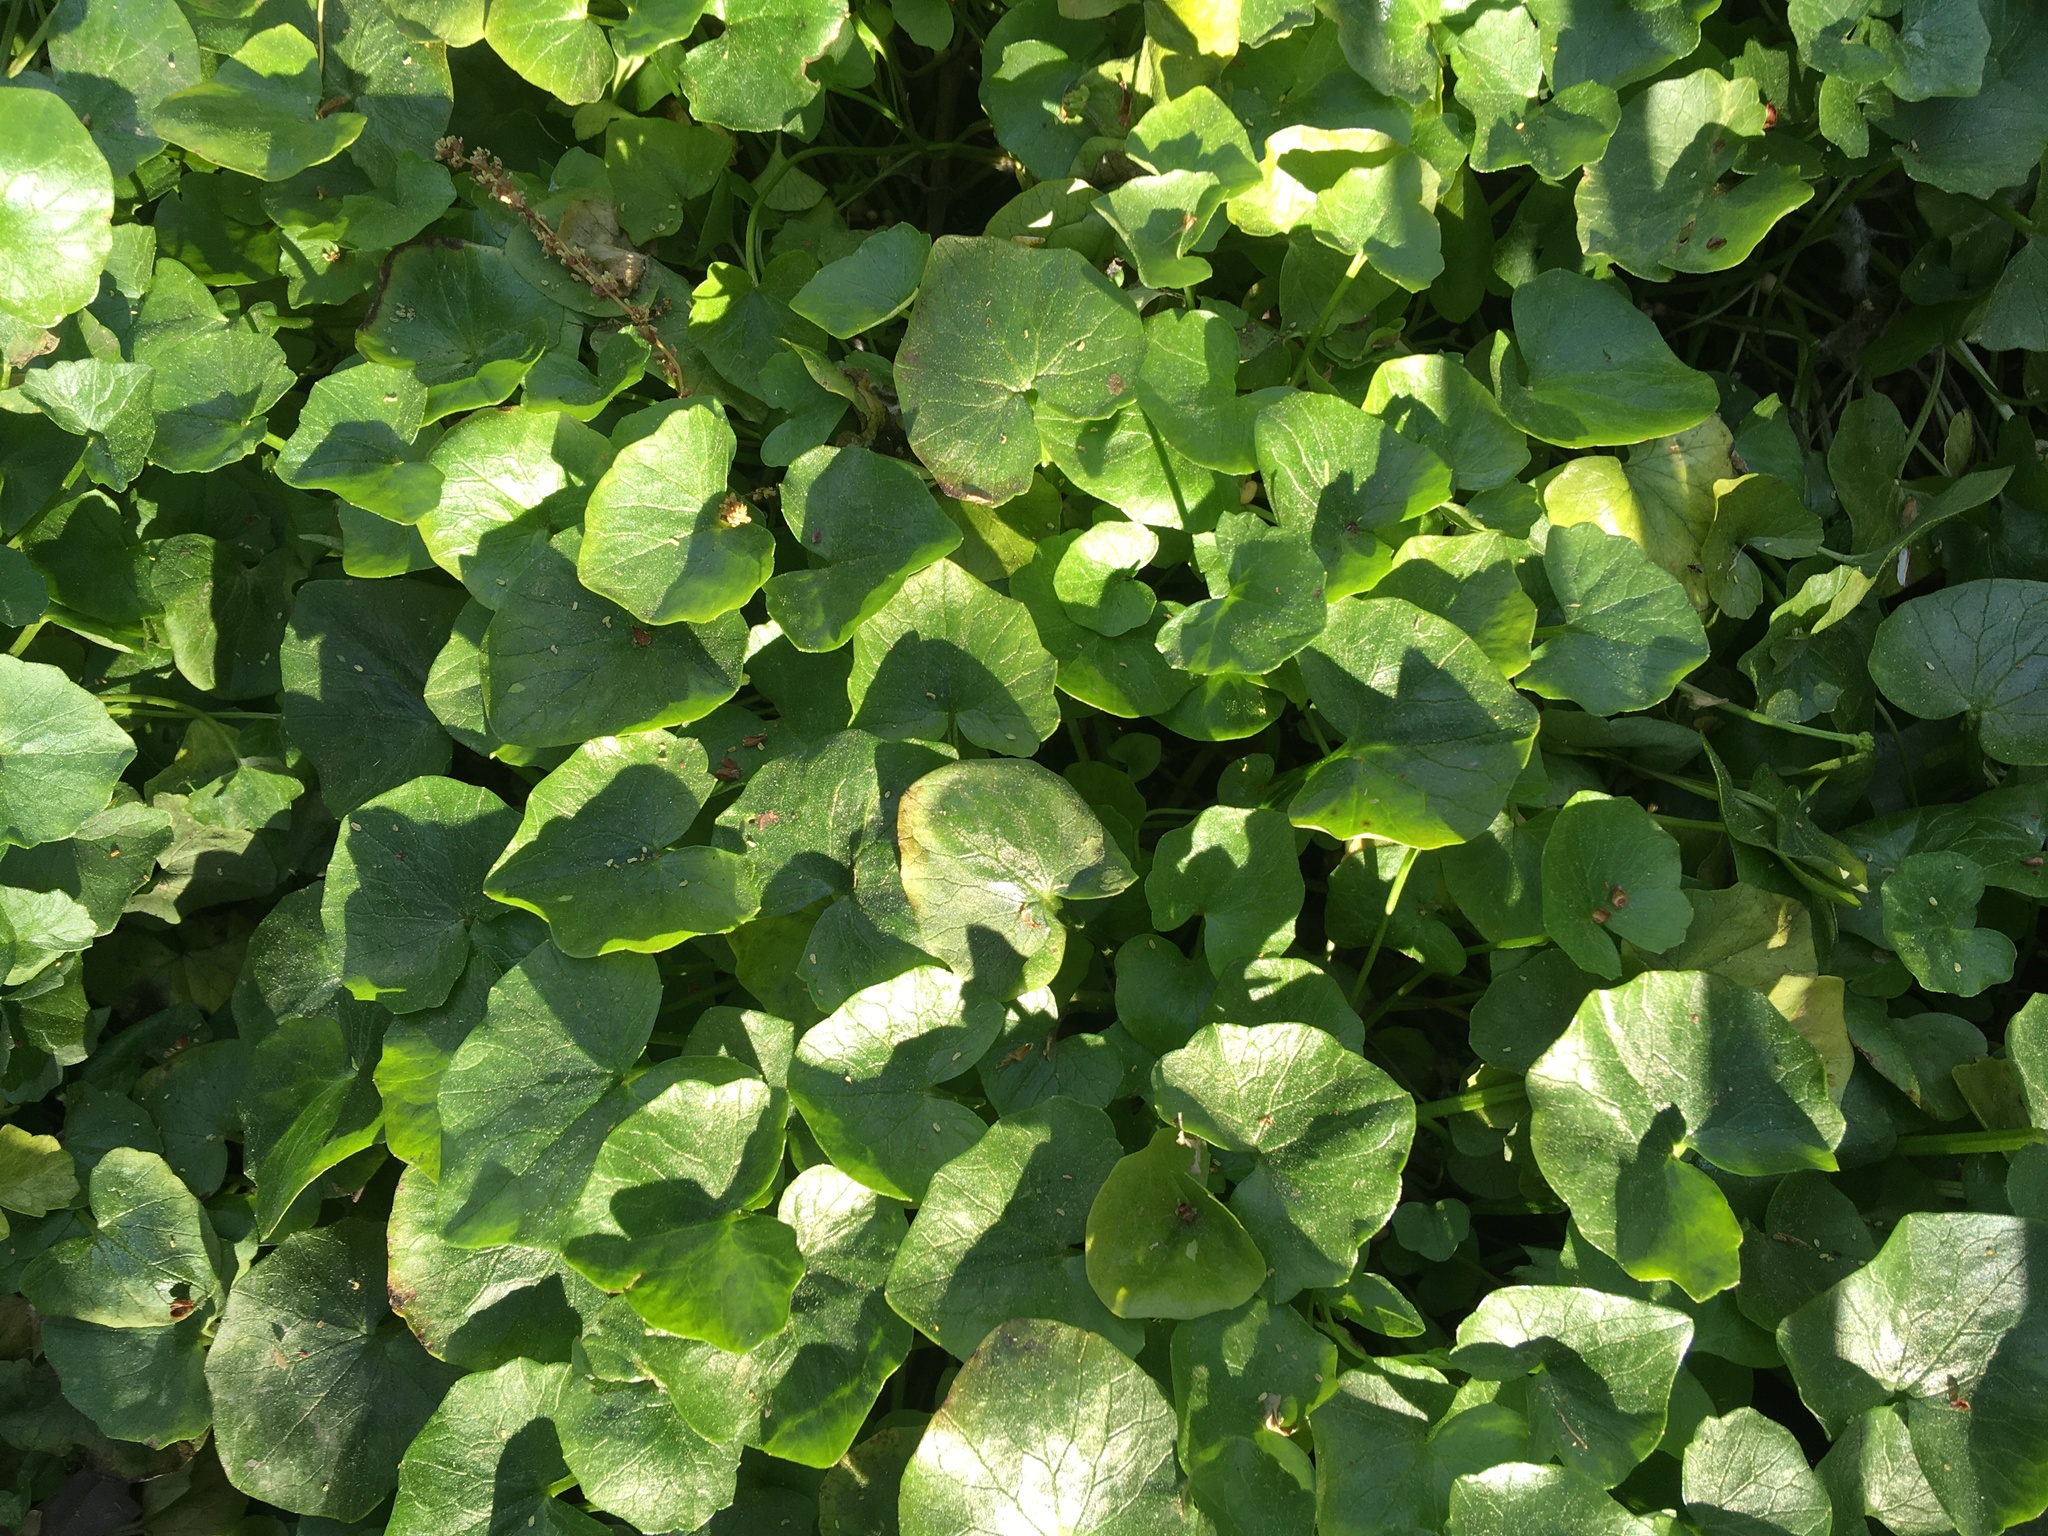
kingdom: Plantae
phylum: Tracheophyta
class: Magnoliopsida
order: Ranunculales
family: Ranunculaceae
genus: Ficaria
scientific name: Ficaria verna
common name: Lesser celandine
